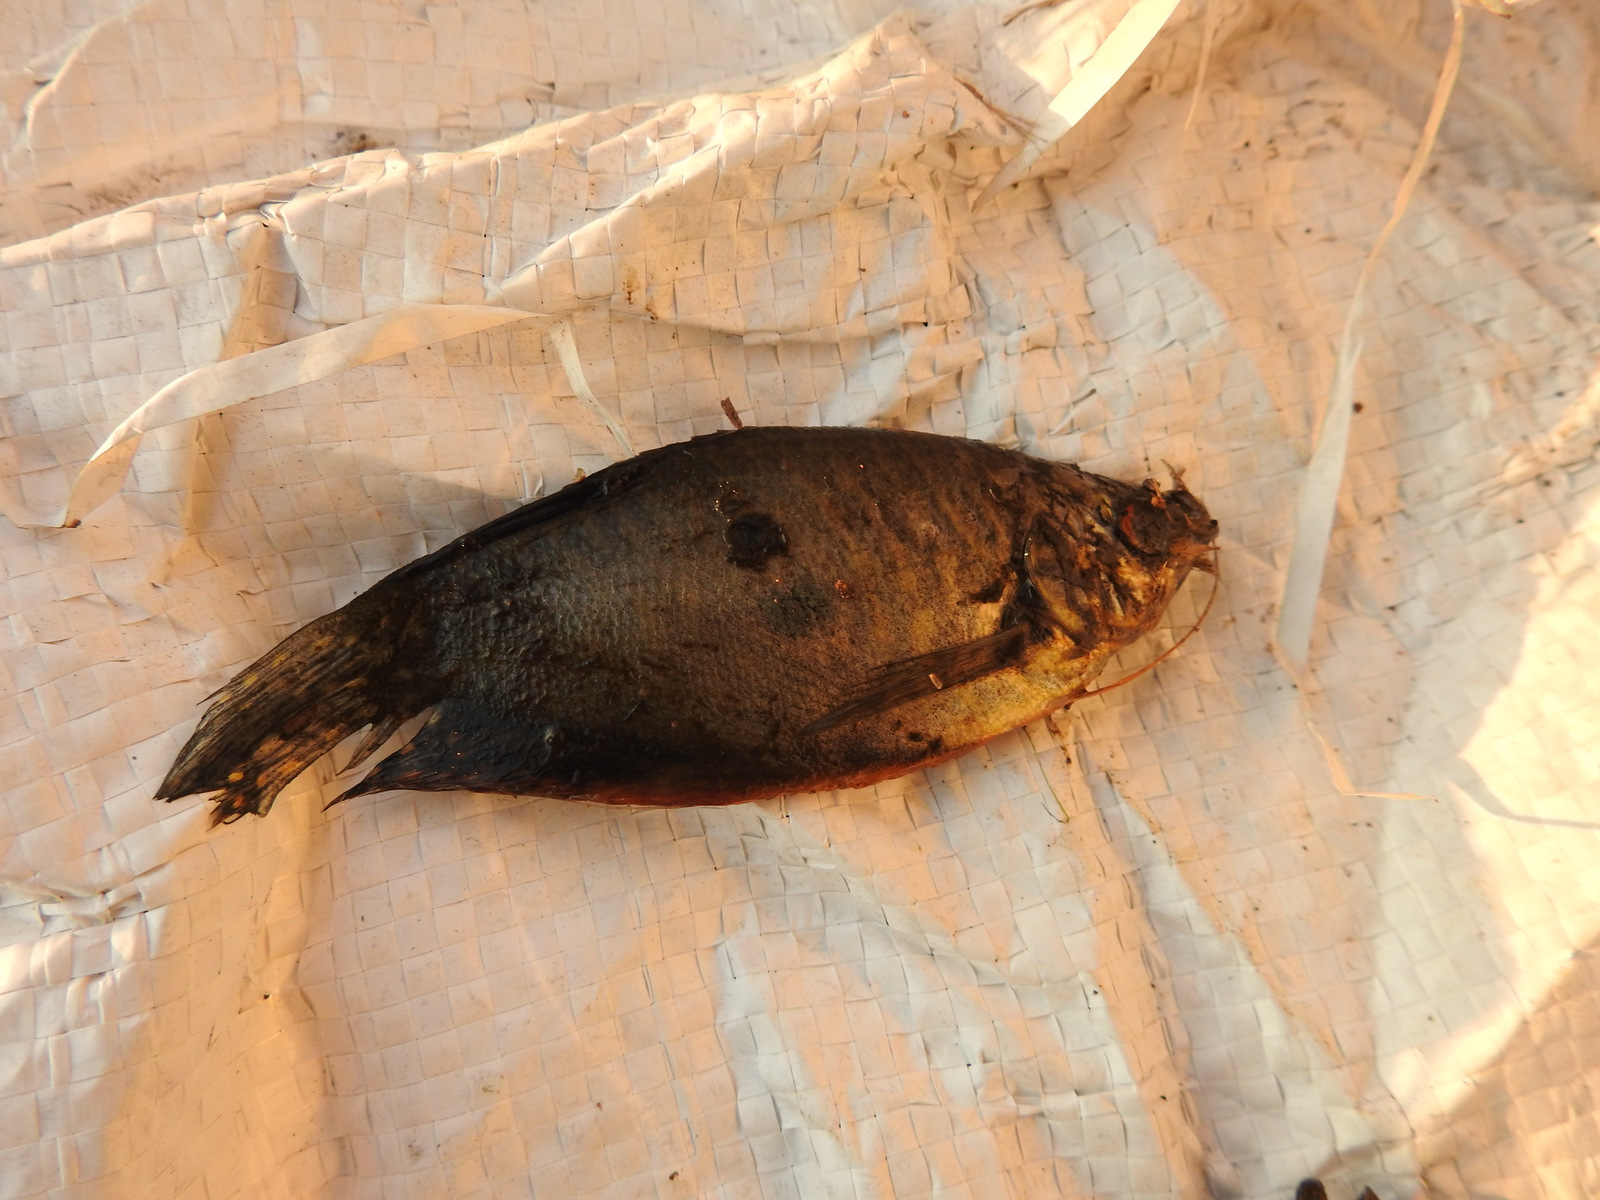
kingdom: Animalia
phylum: Chordata
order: Perciformes
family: Osphronemidae
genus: Trichopodus
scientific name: Trichopodus trichopterus
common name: Blue gourami
